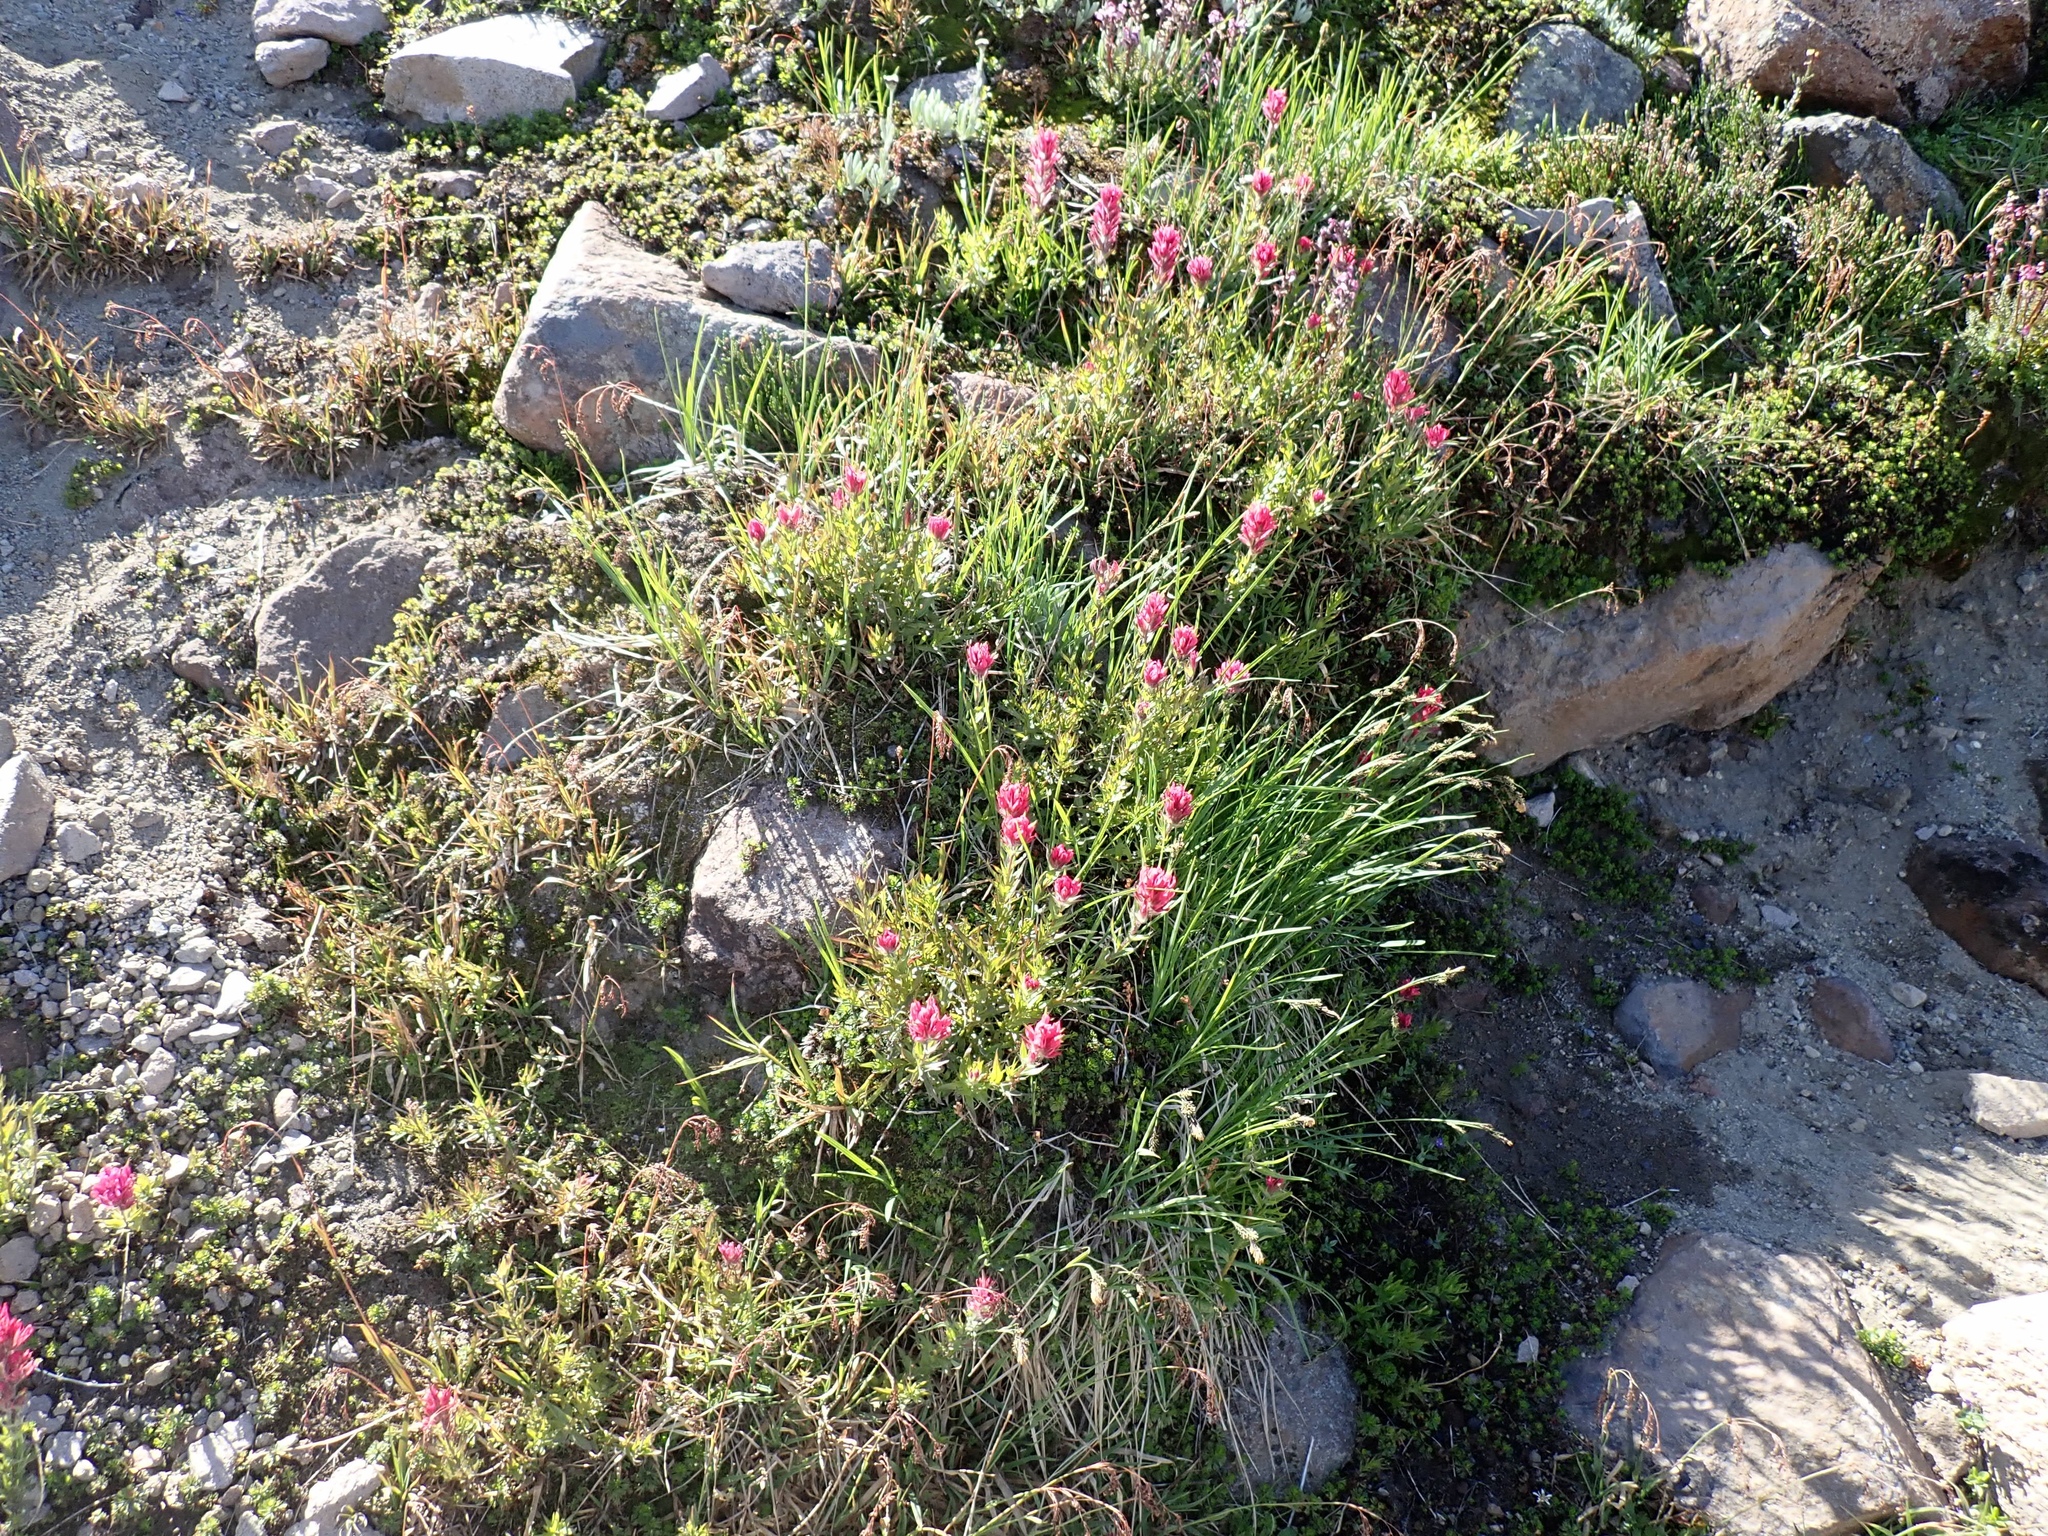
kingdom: Plantae
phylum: Tracheophyta
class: Magnoliopsida
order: Lamiales
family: Orobanchaceae
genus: Castilleja
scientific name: Castilleja parviflora
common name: Mountain paintbrush
